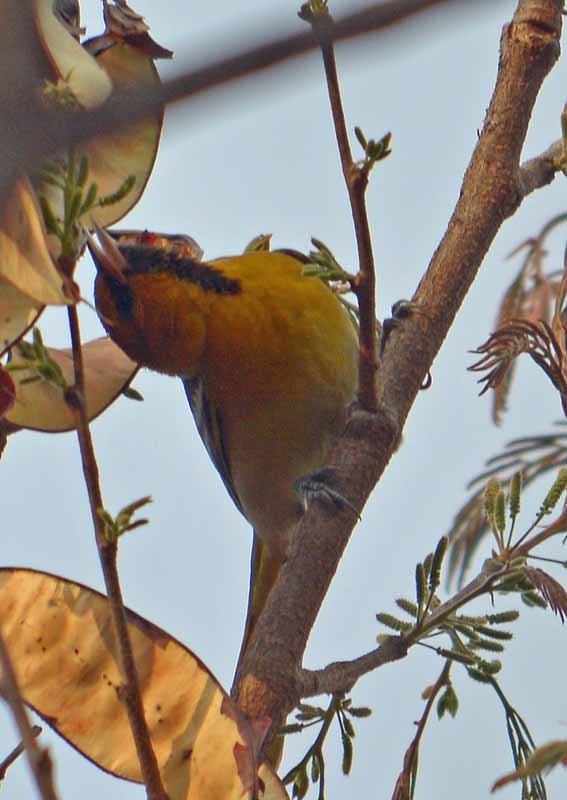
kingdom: Animalia
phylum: Chordata
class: Aves
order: Passeriformes
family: Icteridae
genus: Icterus
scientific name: Icterus bullockii
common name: Bullock's oriole
